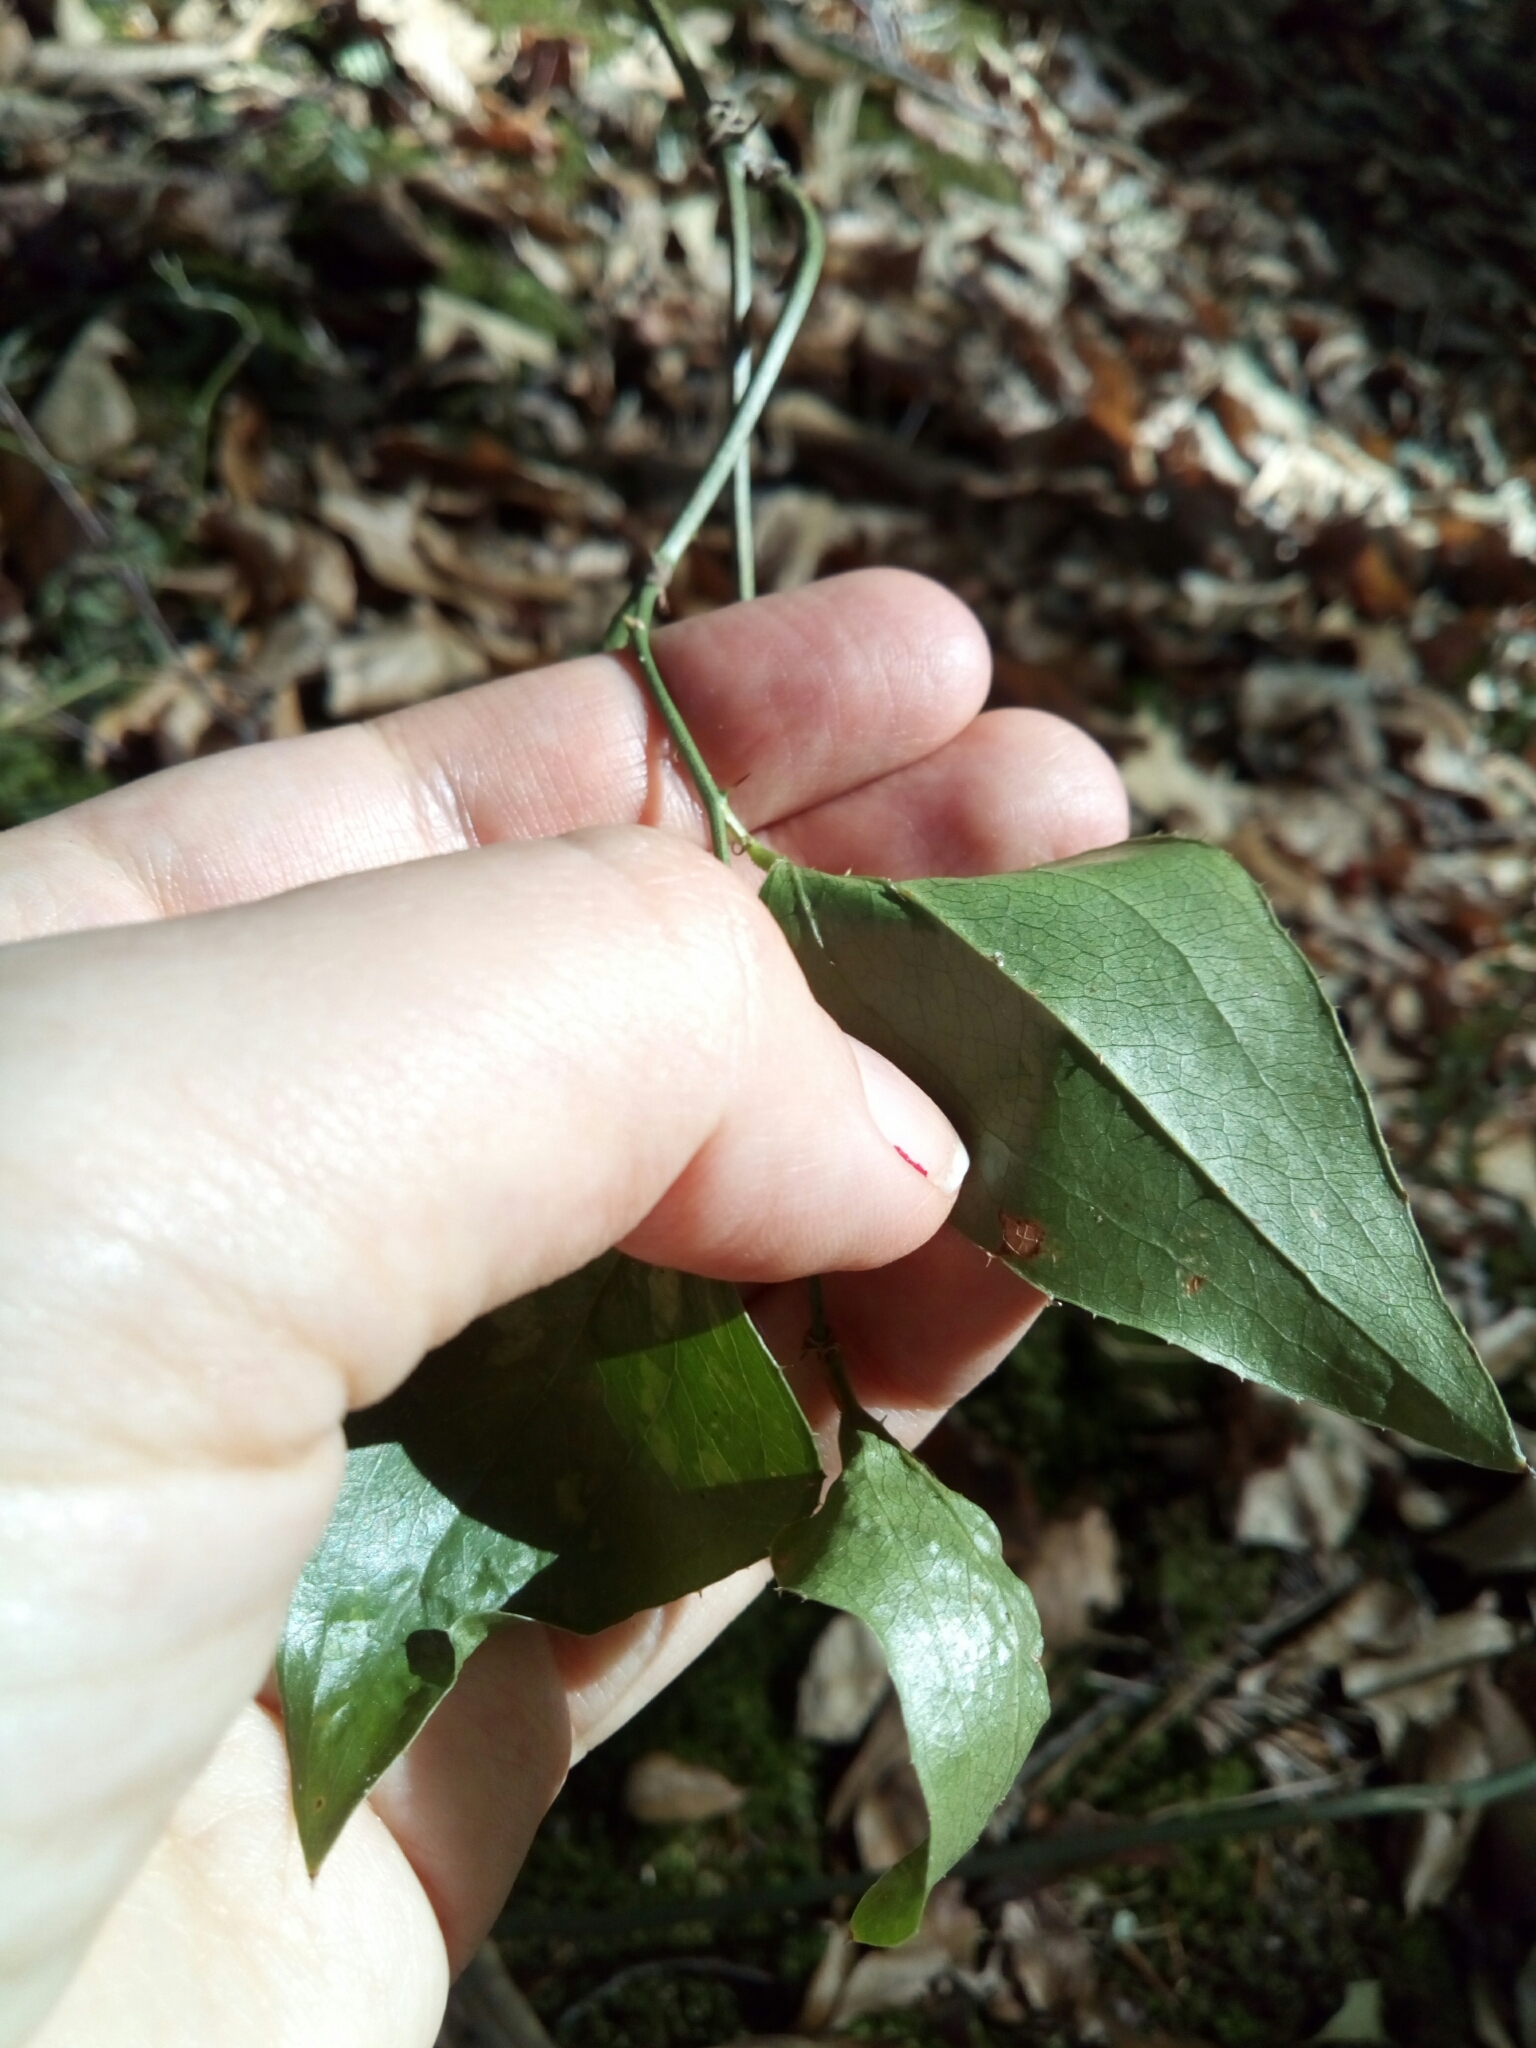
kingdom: Plantae
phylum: Tracheophyta
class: Liliopsida
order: Liliales
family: Smilacaceae
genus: Smilax
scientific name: Smilax bona-nox
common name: Catbrier
